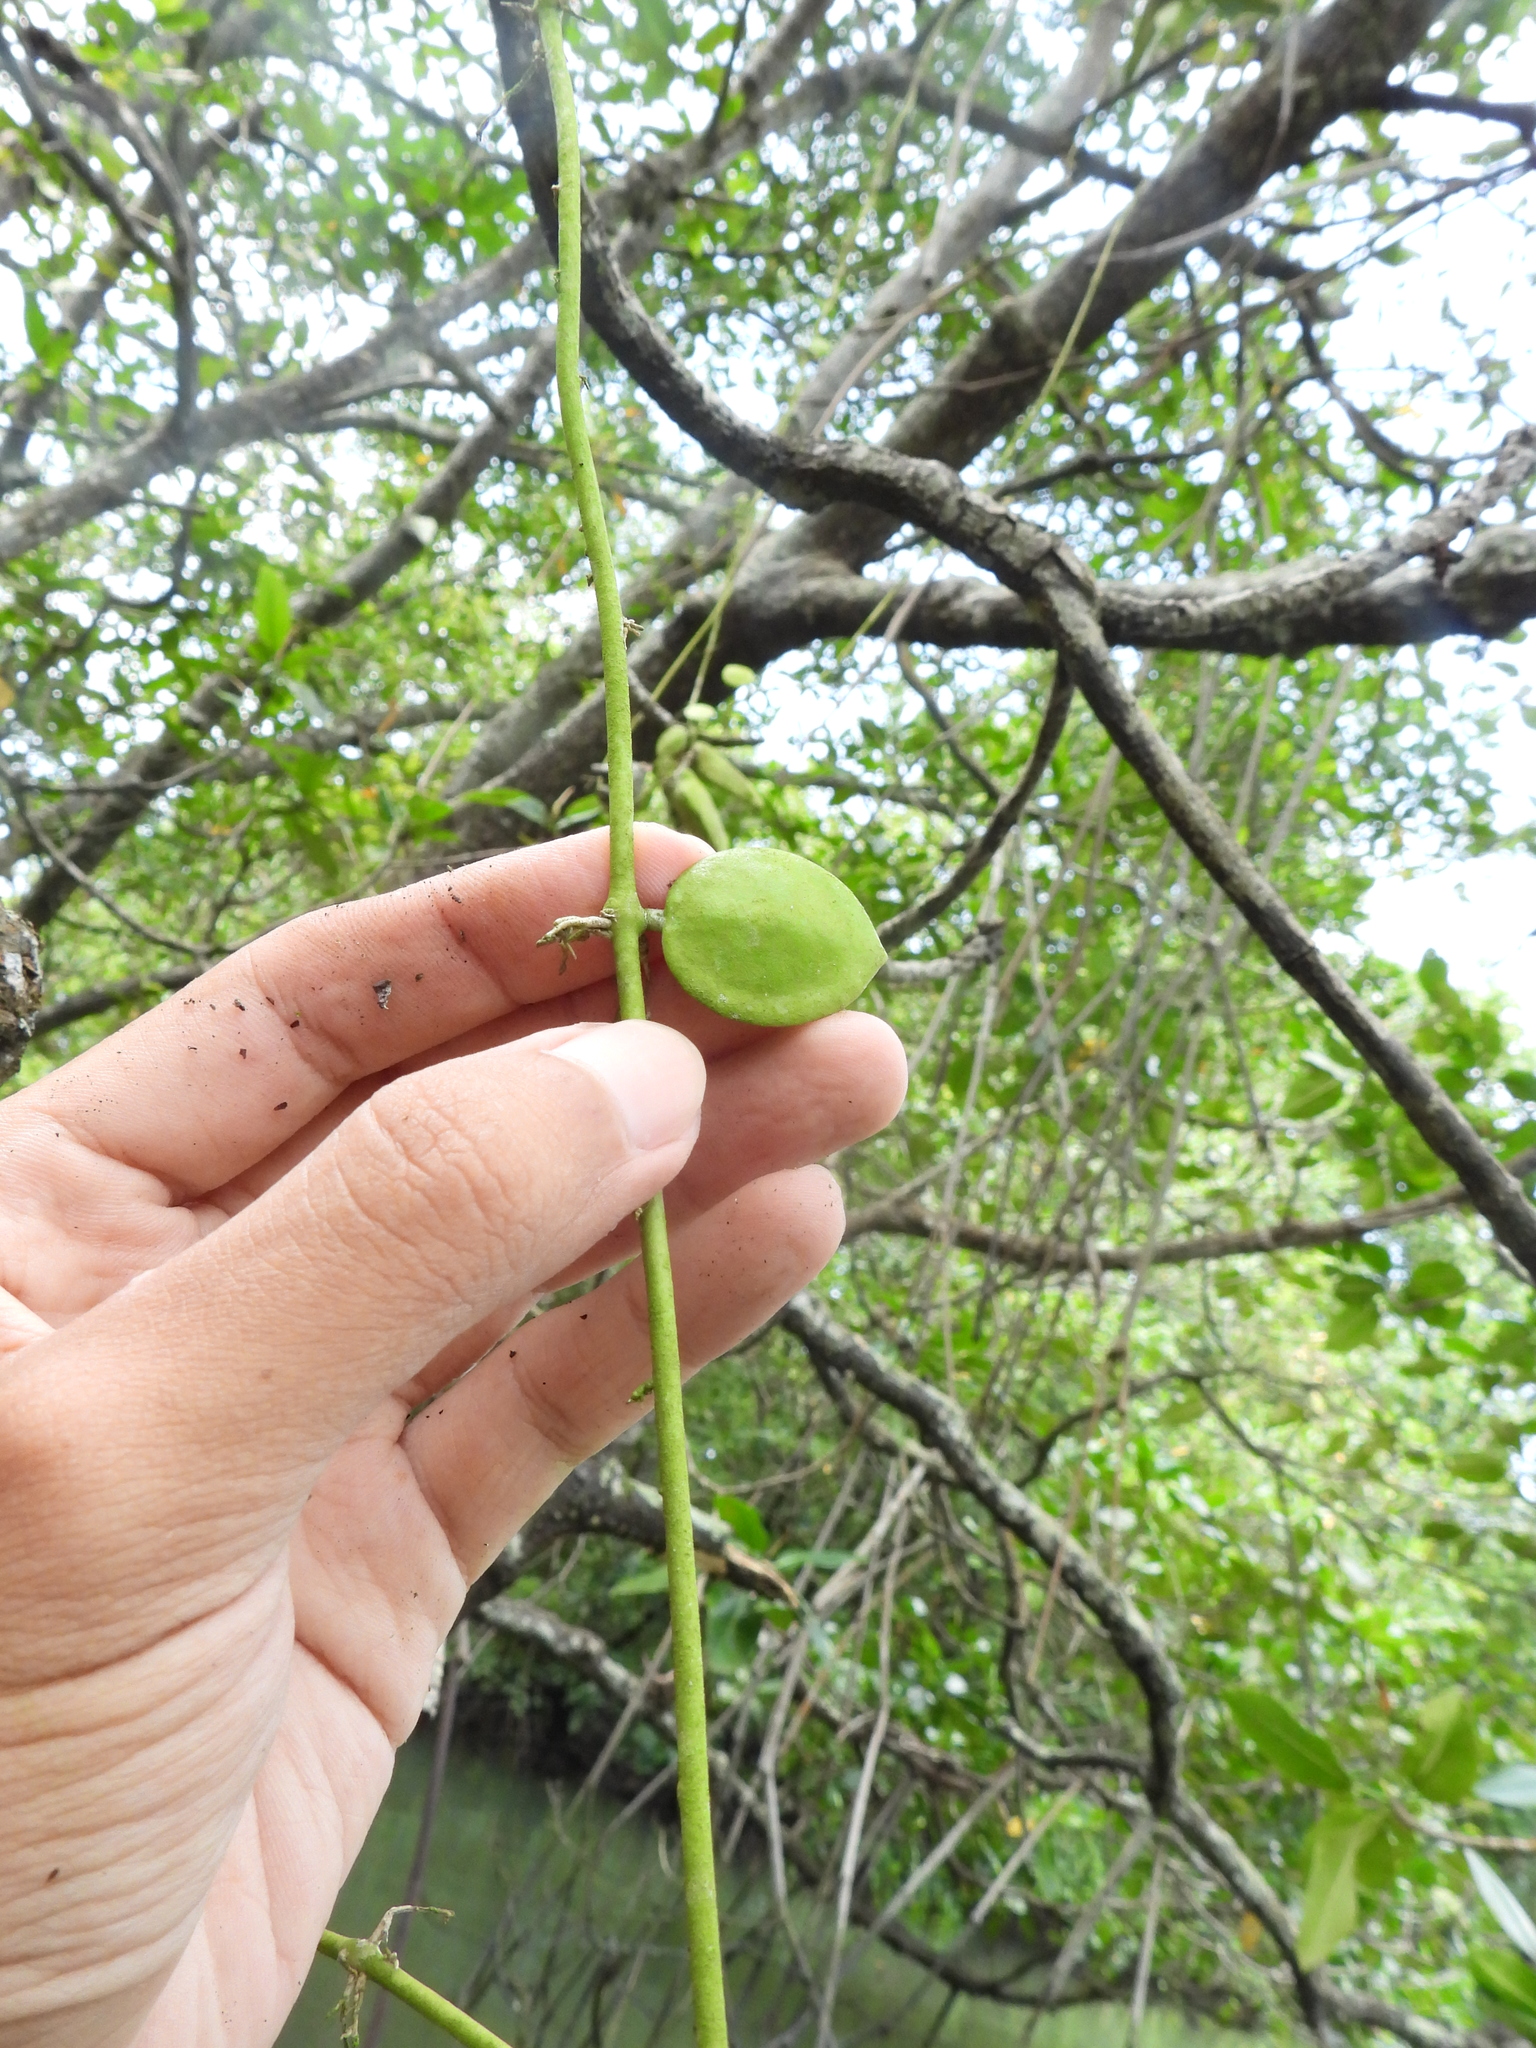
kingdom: Plantae
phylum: Tracheophyta
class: Magnoliopsida
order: Gentianales
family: Apocynaceae
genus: Dischidia
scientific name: Dischidia major
